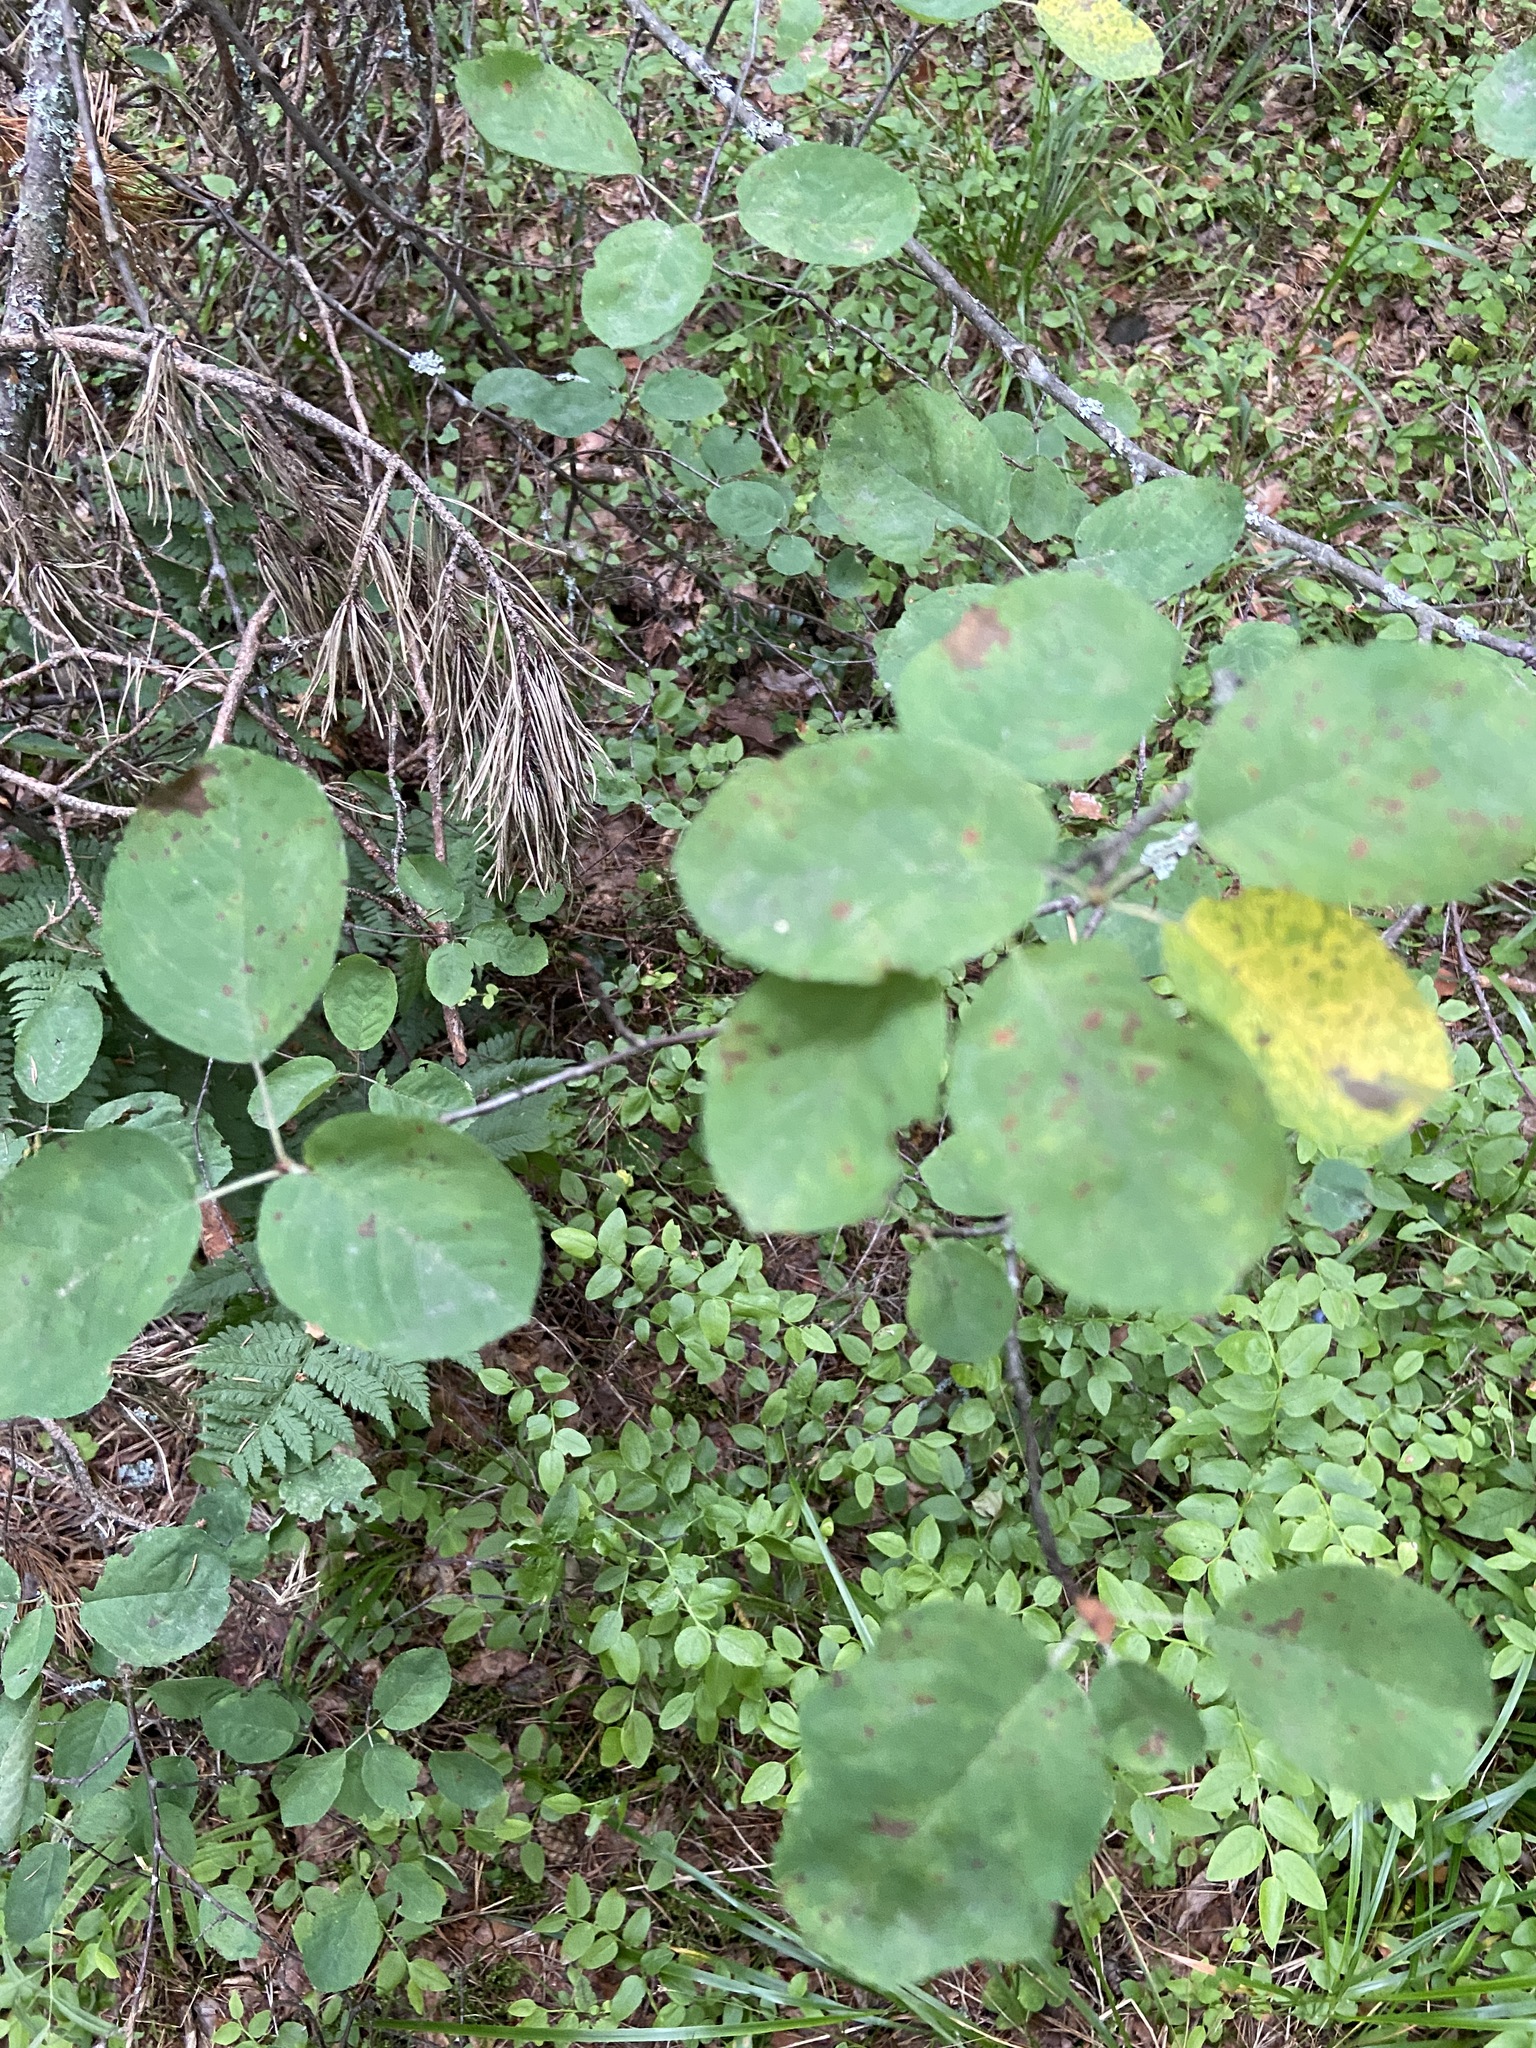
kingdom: Plantae
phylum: Tracheophyta
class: Magnoliopsida
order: Rosales
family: Rosaceae
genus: Amelanchier
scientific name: Amelanchier
